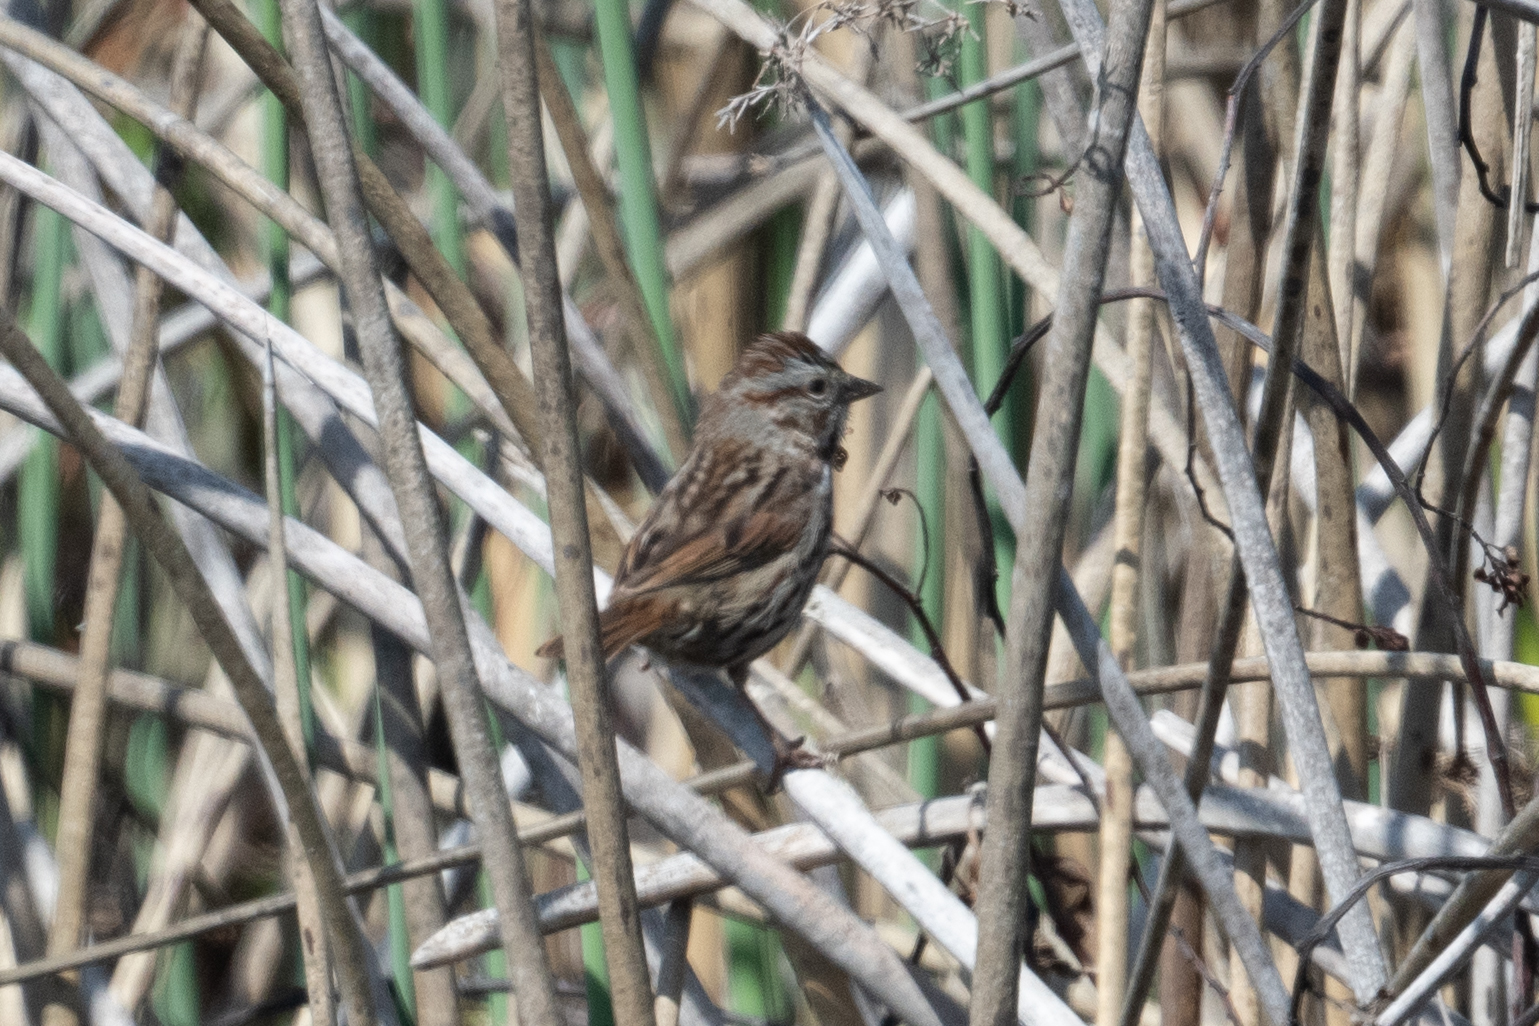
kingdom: Animalia
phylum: Chordata
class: Aves
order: Passeriformes
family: Passerellidae
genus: Melospiza
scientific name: Melospiza melodia
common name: Song sparrow
